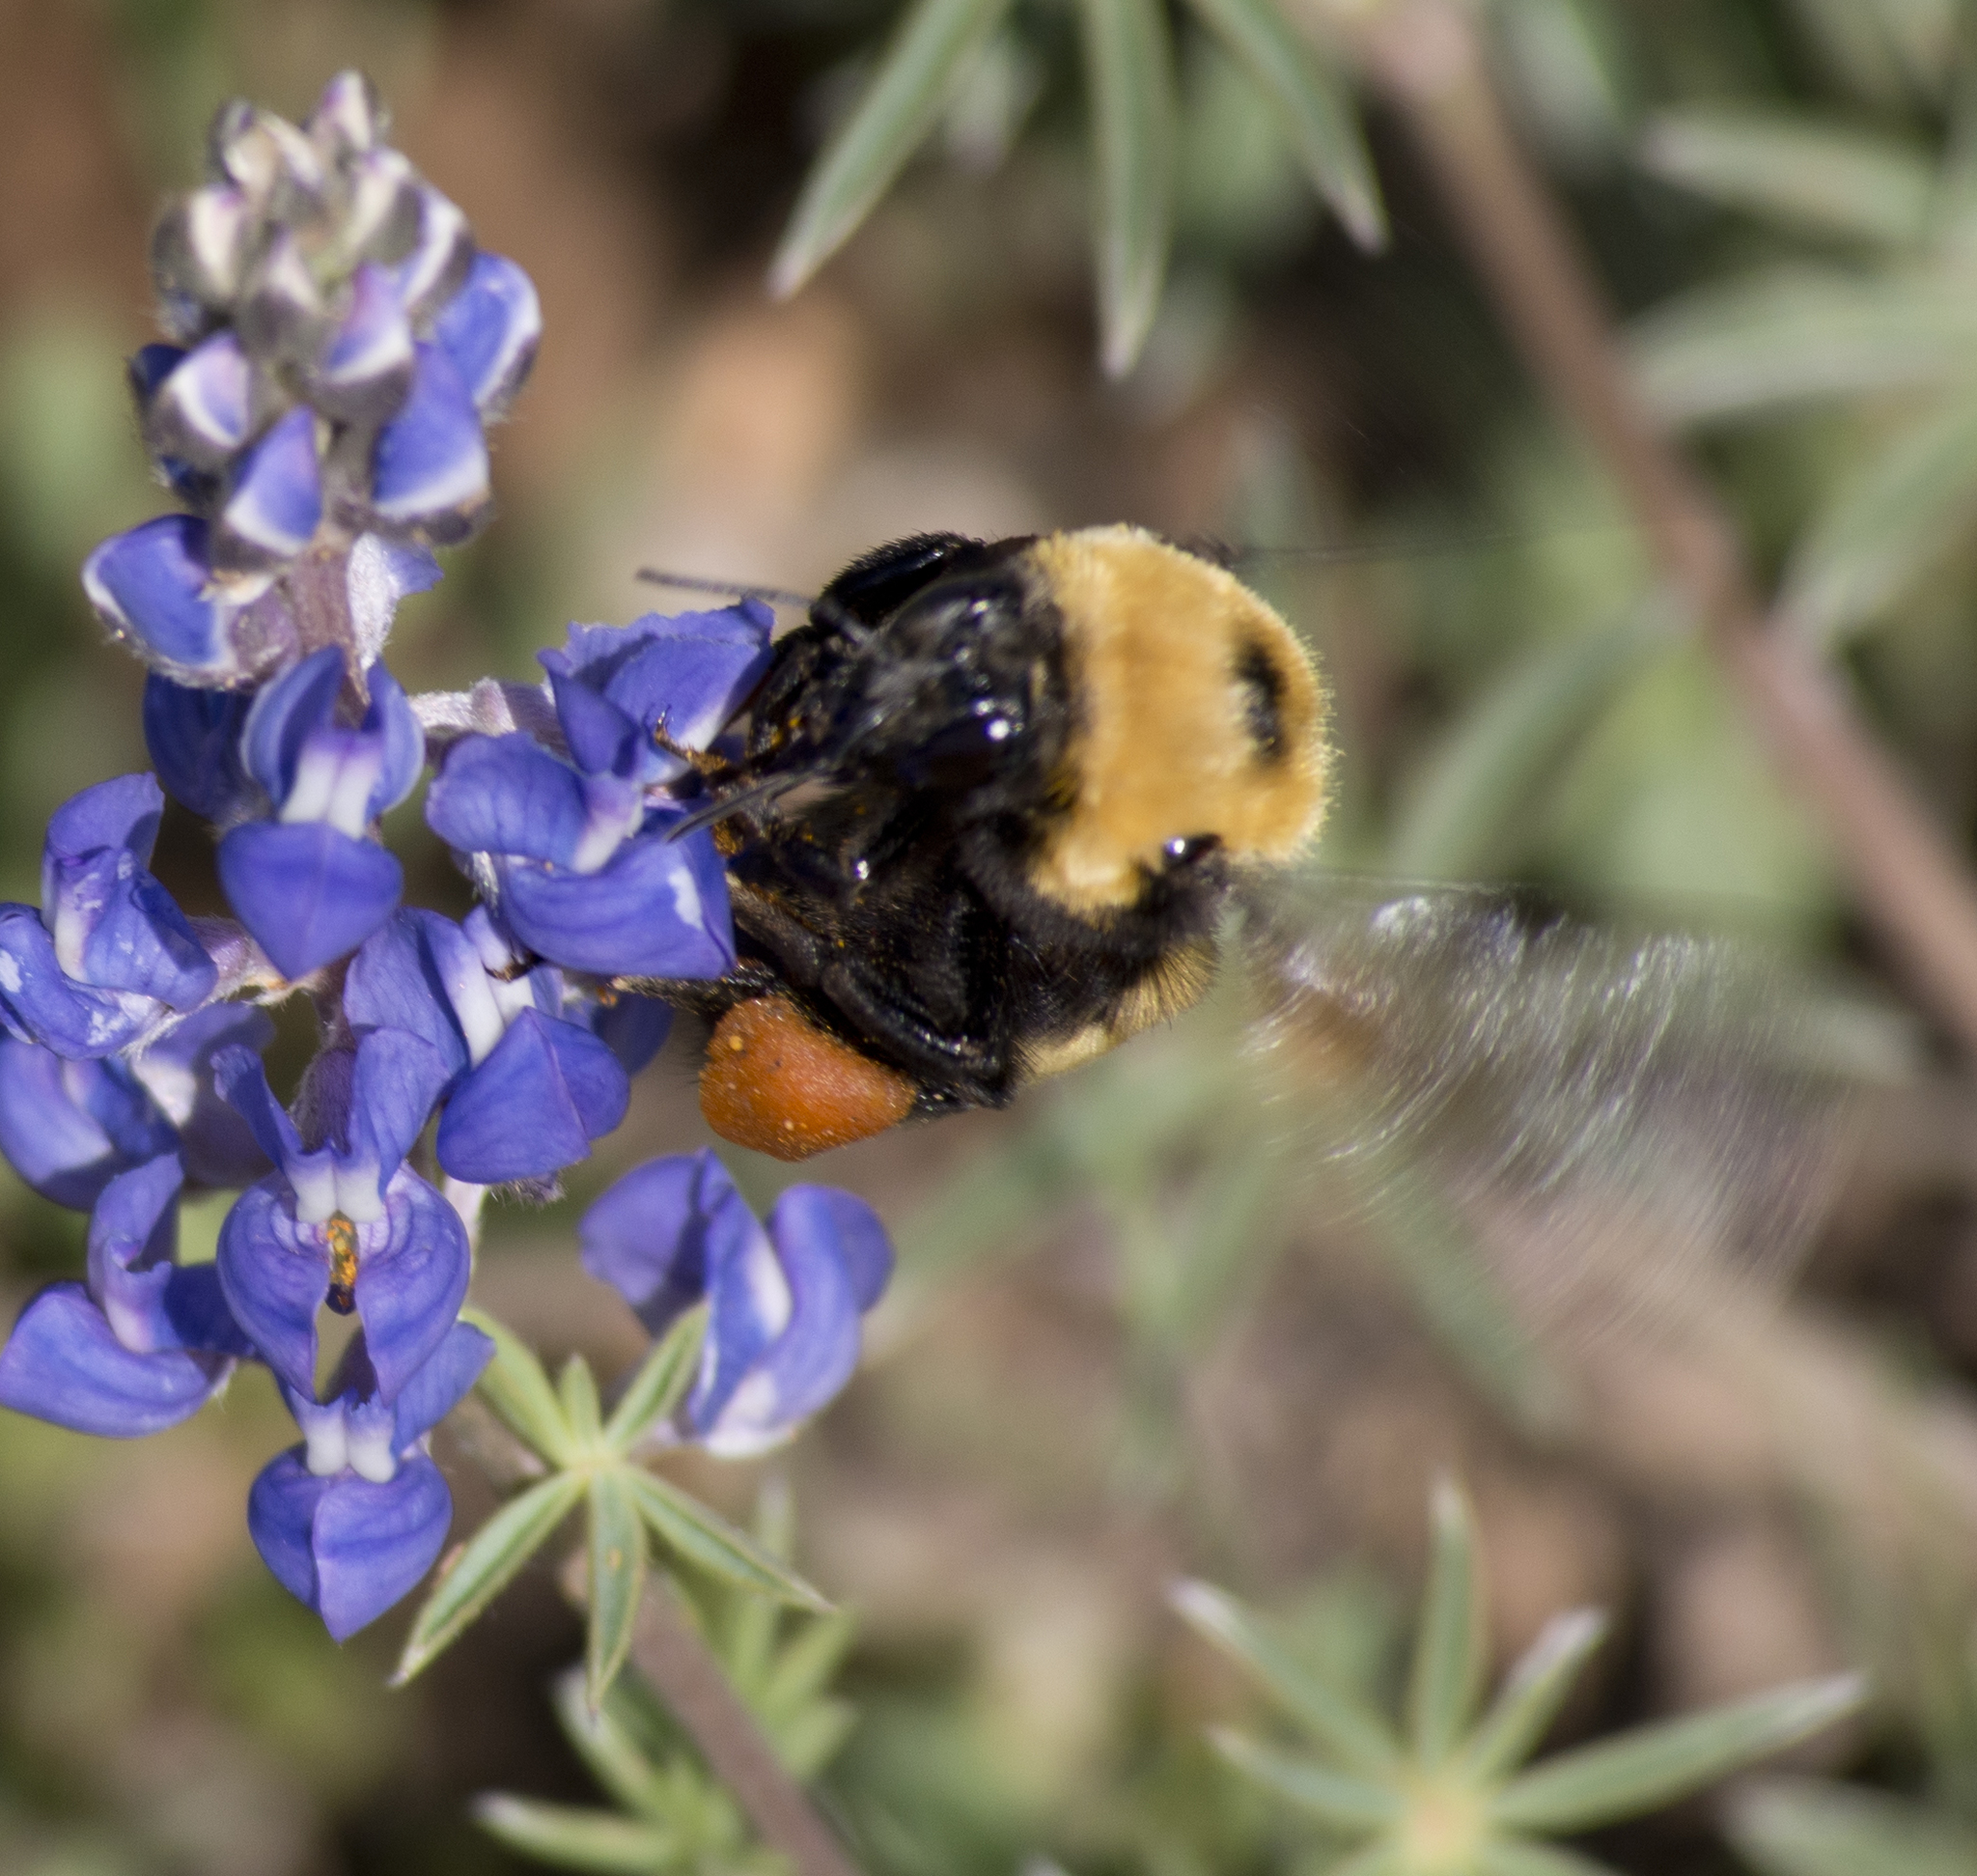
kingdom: Animalia
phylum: Arthropoda
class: Insecta
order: Hymenoptera
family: Apidae
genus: Bombus
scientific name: Bombus nevadensis
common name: Nevada bumble bee
